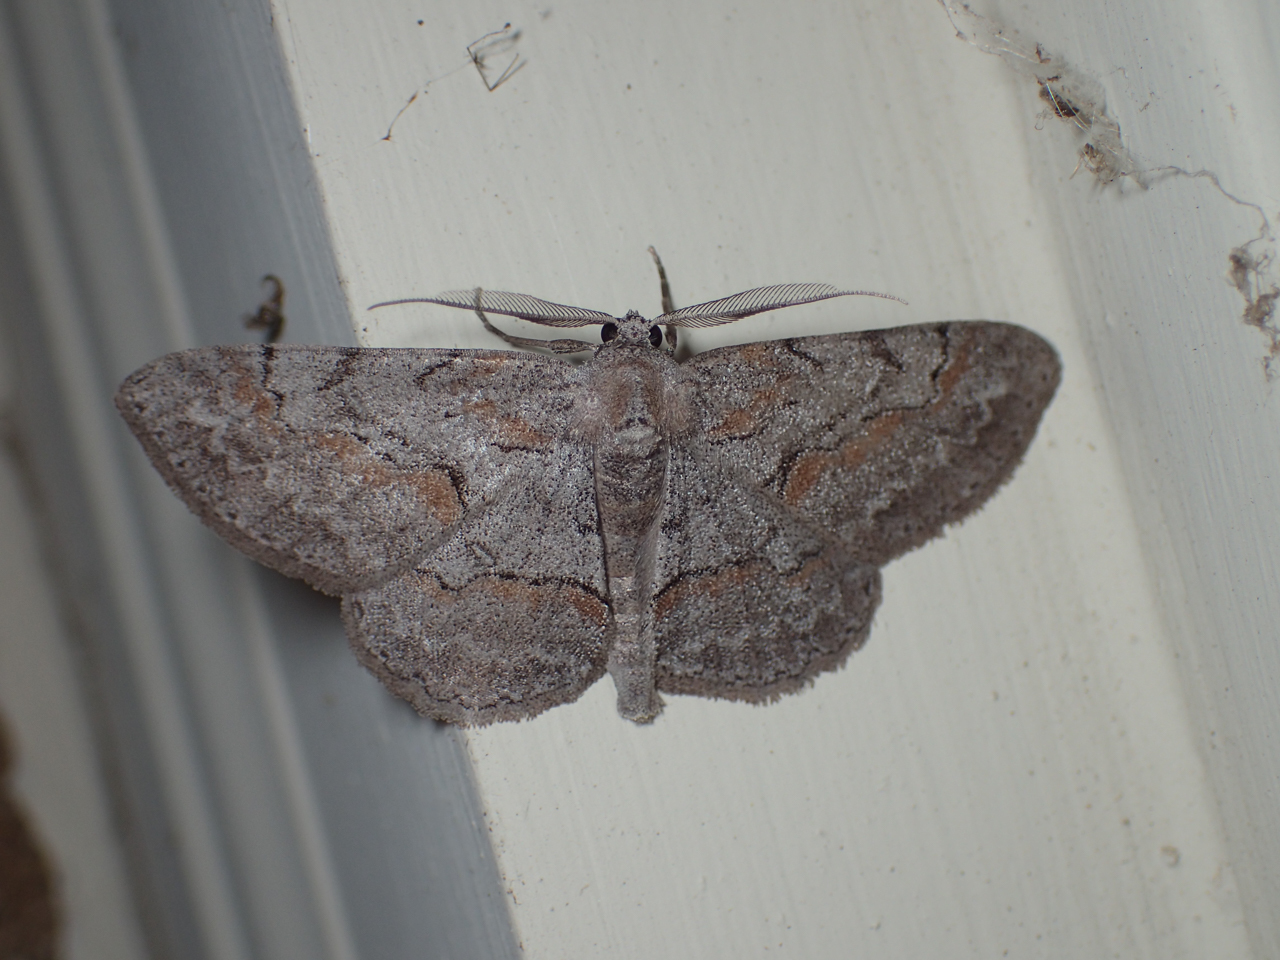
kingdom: Animalia
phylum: Arthropoda
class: Insecta
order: Lepidoptera
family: Geometridae
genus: Iridopsis
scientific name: Iridopsis vellivolata
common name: Large purplish gray
